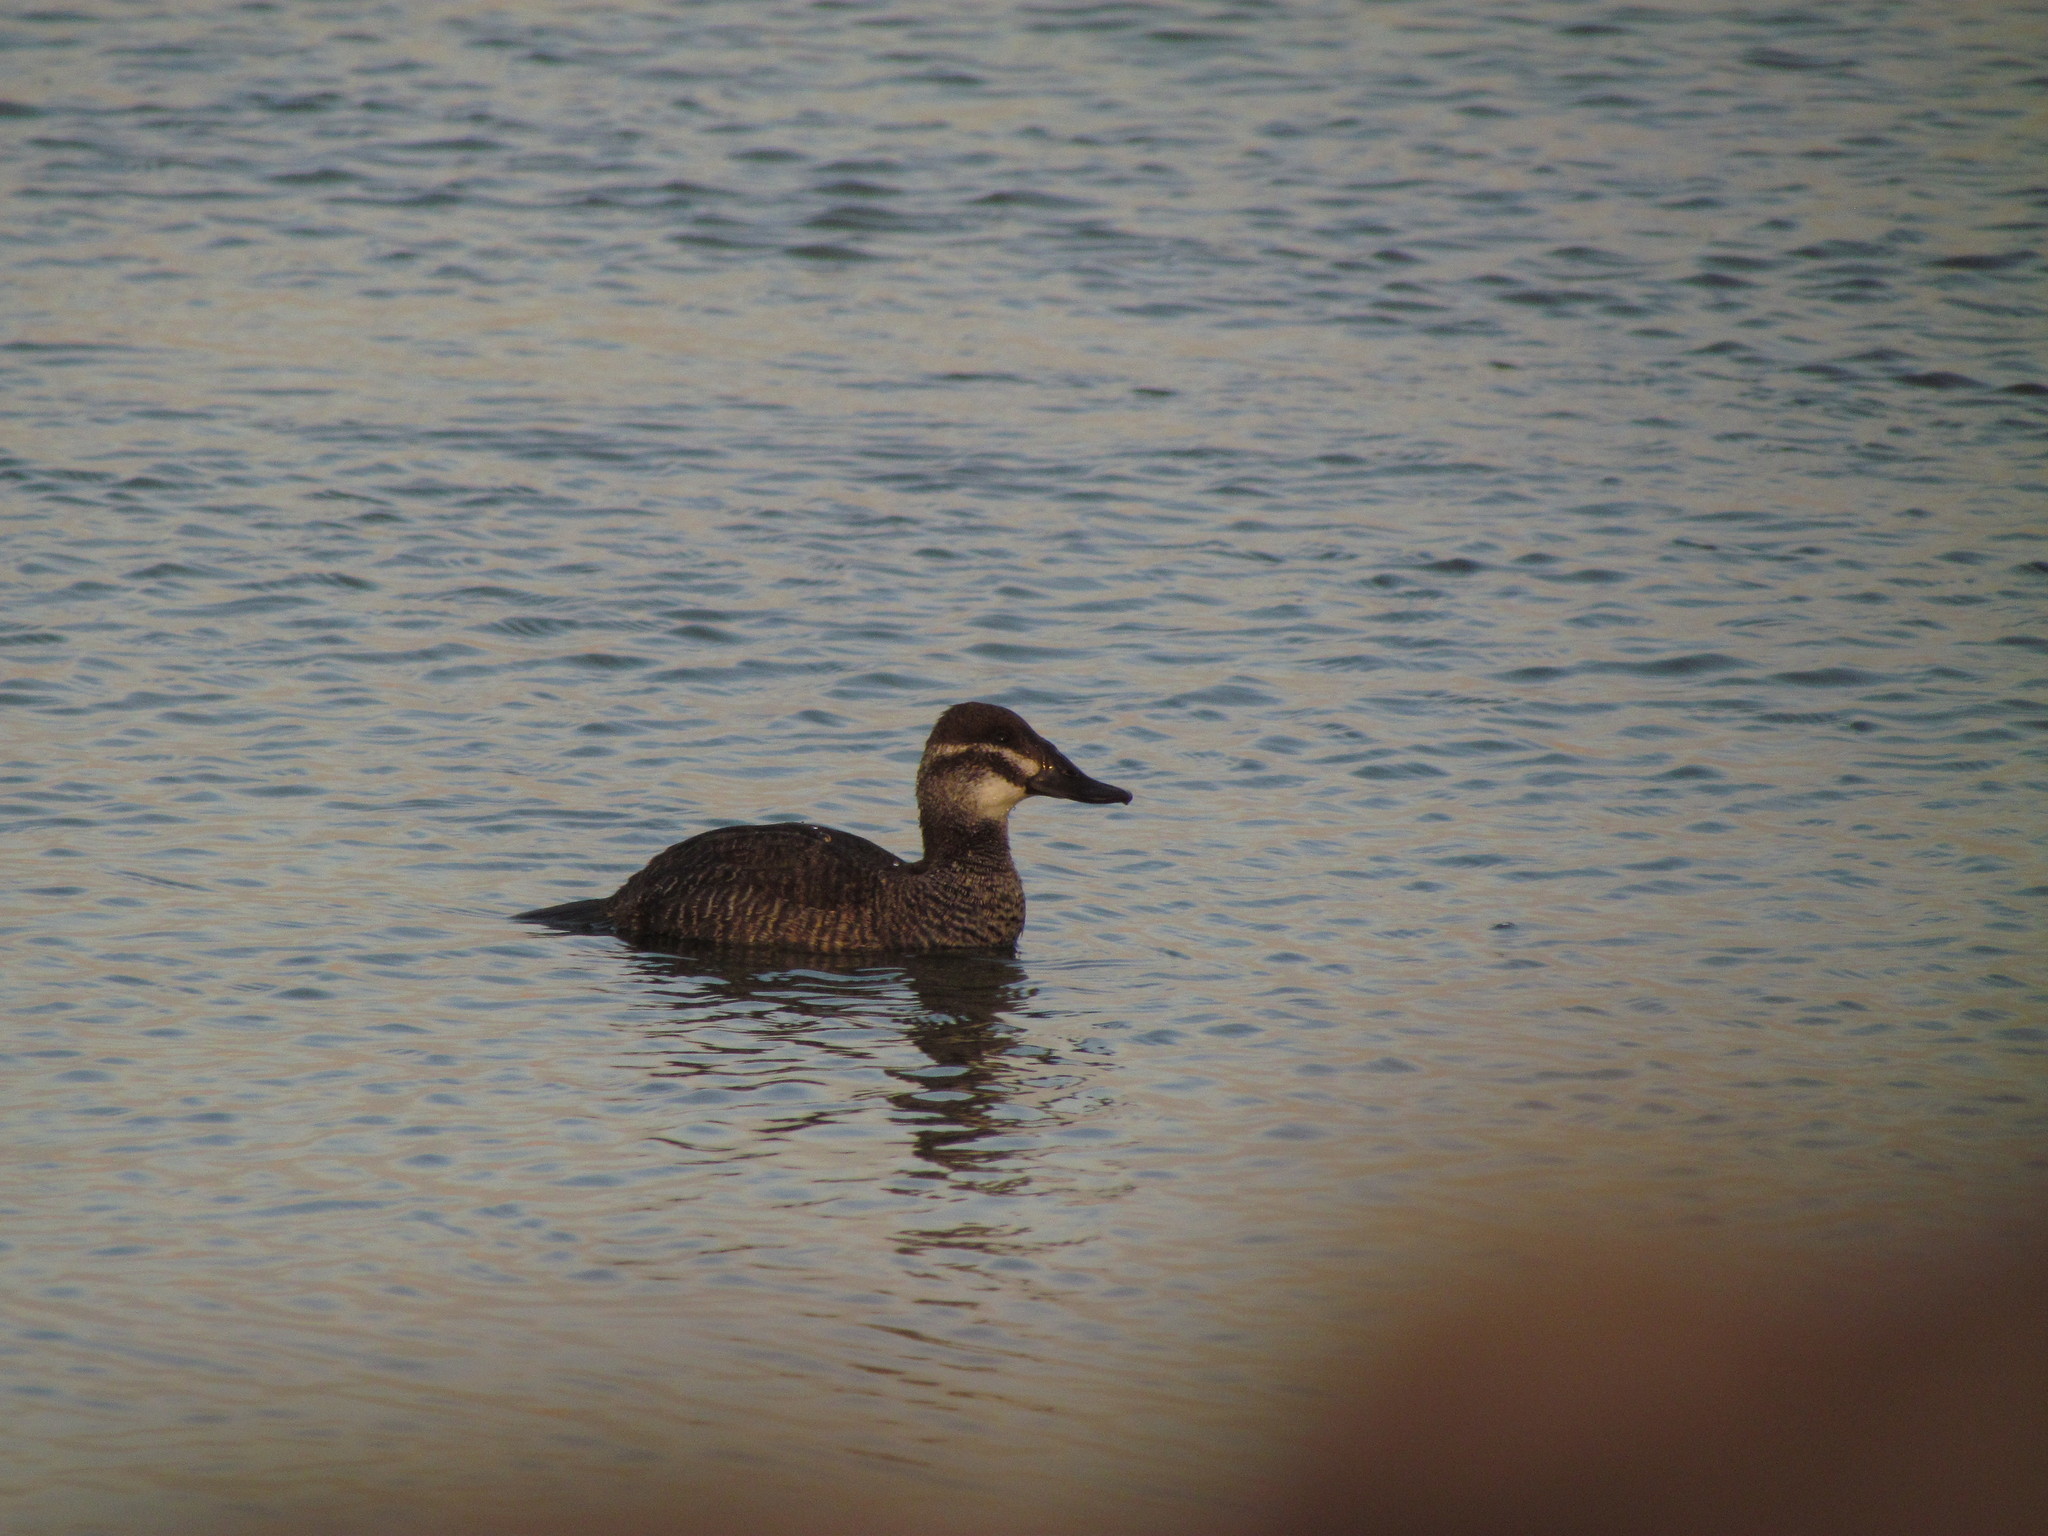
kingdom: Animalia
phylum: Chordata
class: Aves
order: Anseriformes
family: Anatidae
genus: Oxyura
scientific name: Oxyura vittata
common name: Lake duck
